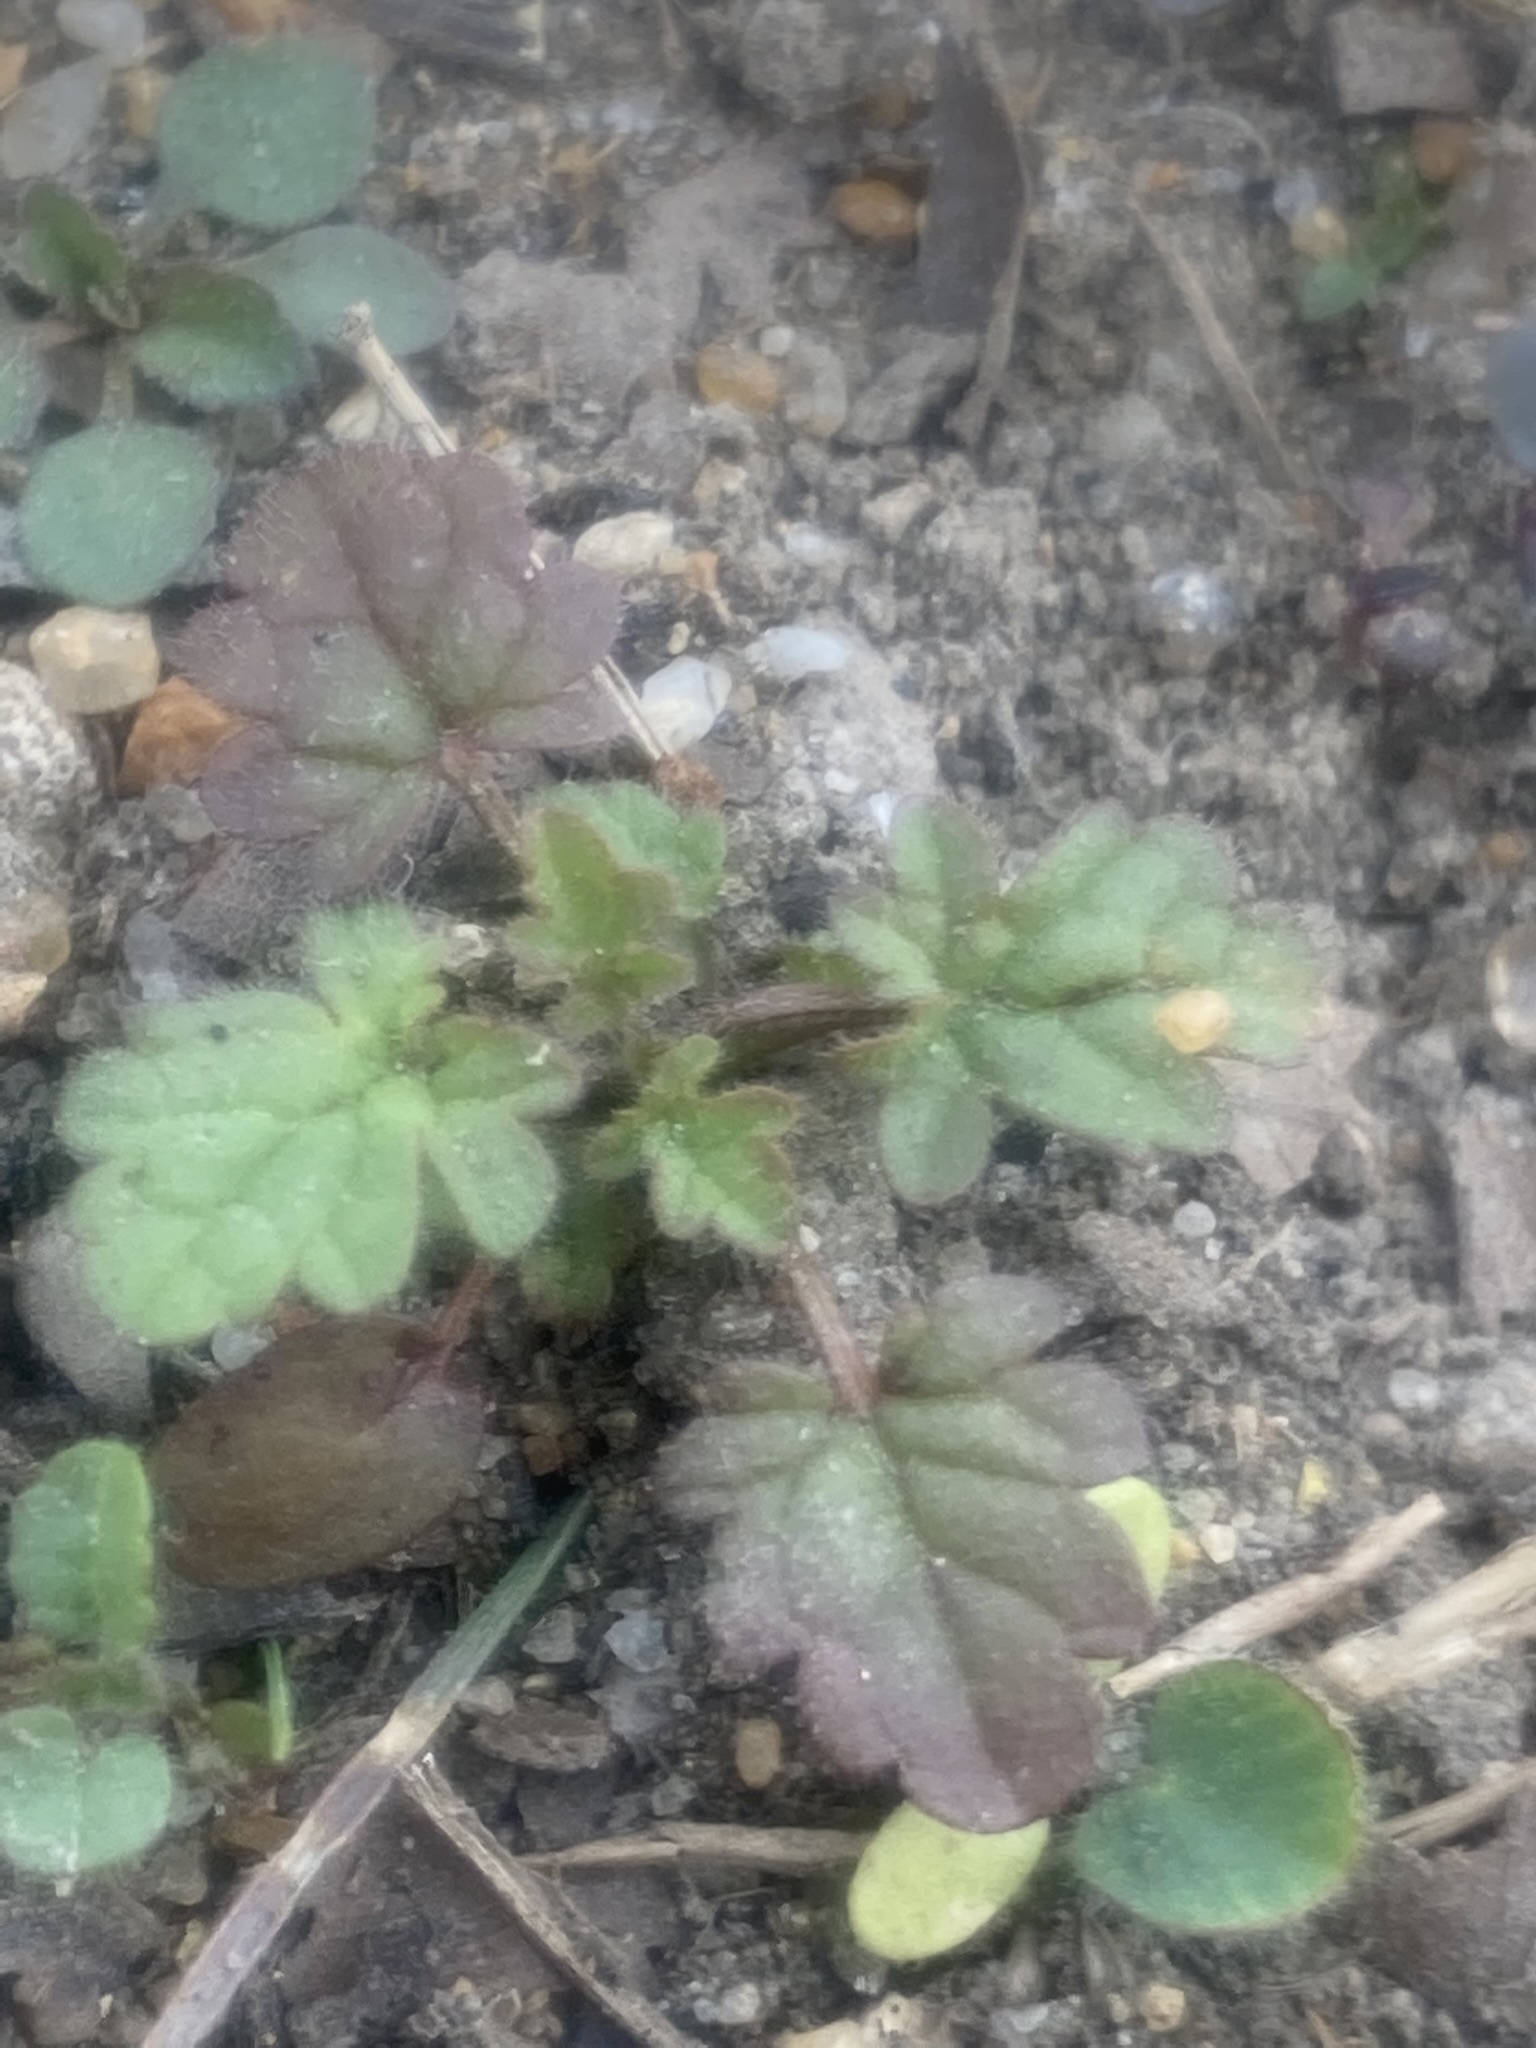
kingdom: Plantae
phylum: Tracheophyta
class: Magnoliopsida
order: Lamiales
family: Lamiaceae
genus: Lamium
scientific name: Lamium amplexicaule
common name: Henbit dead-nettle
